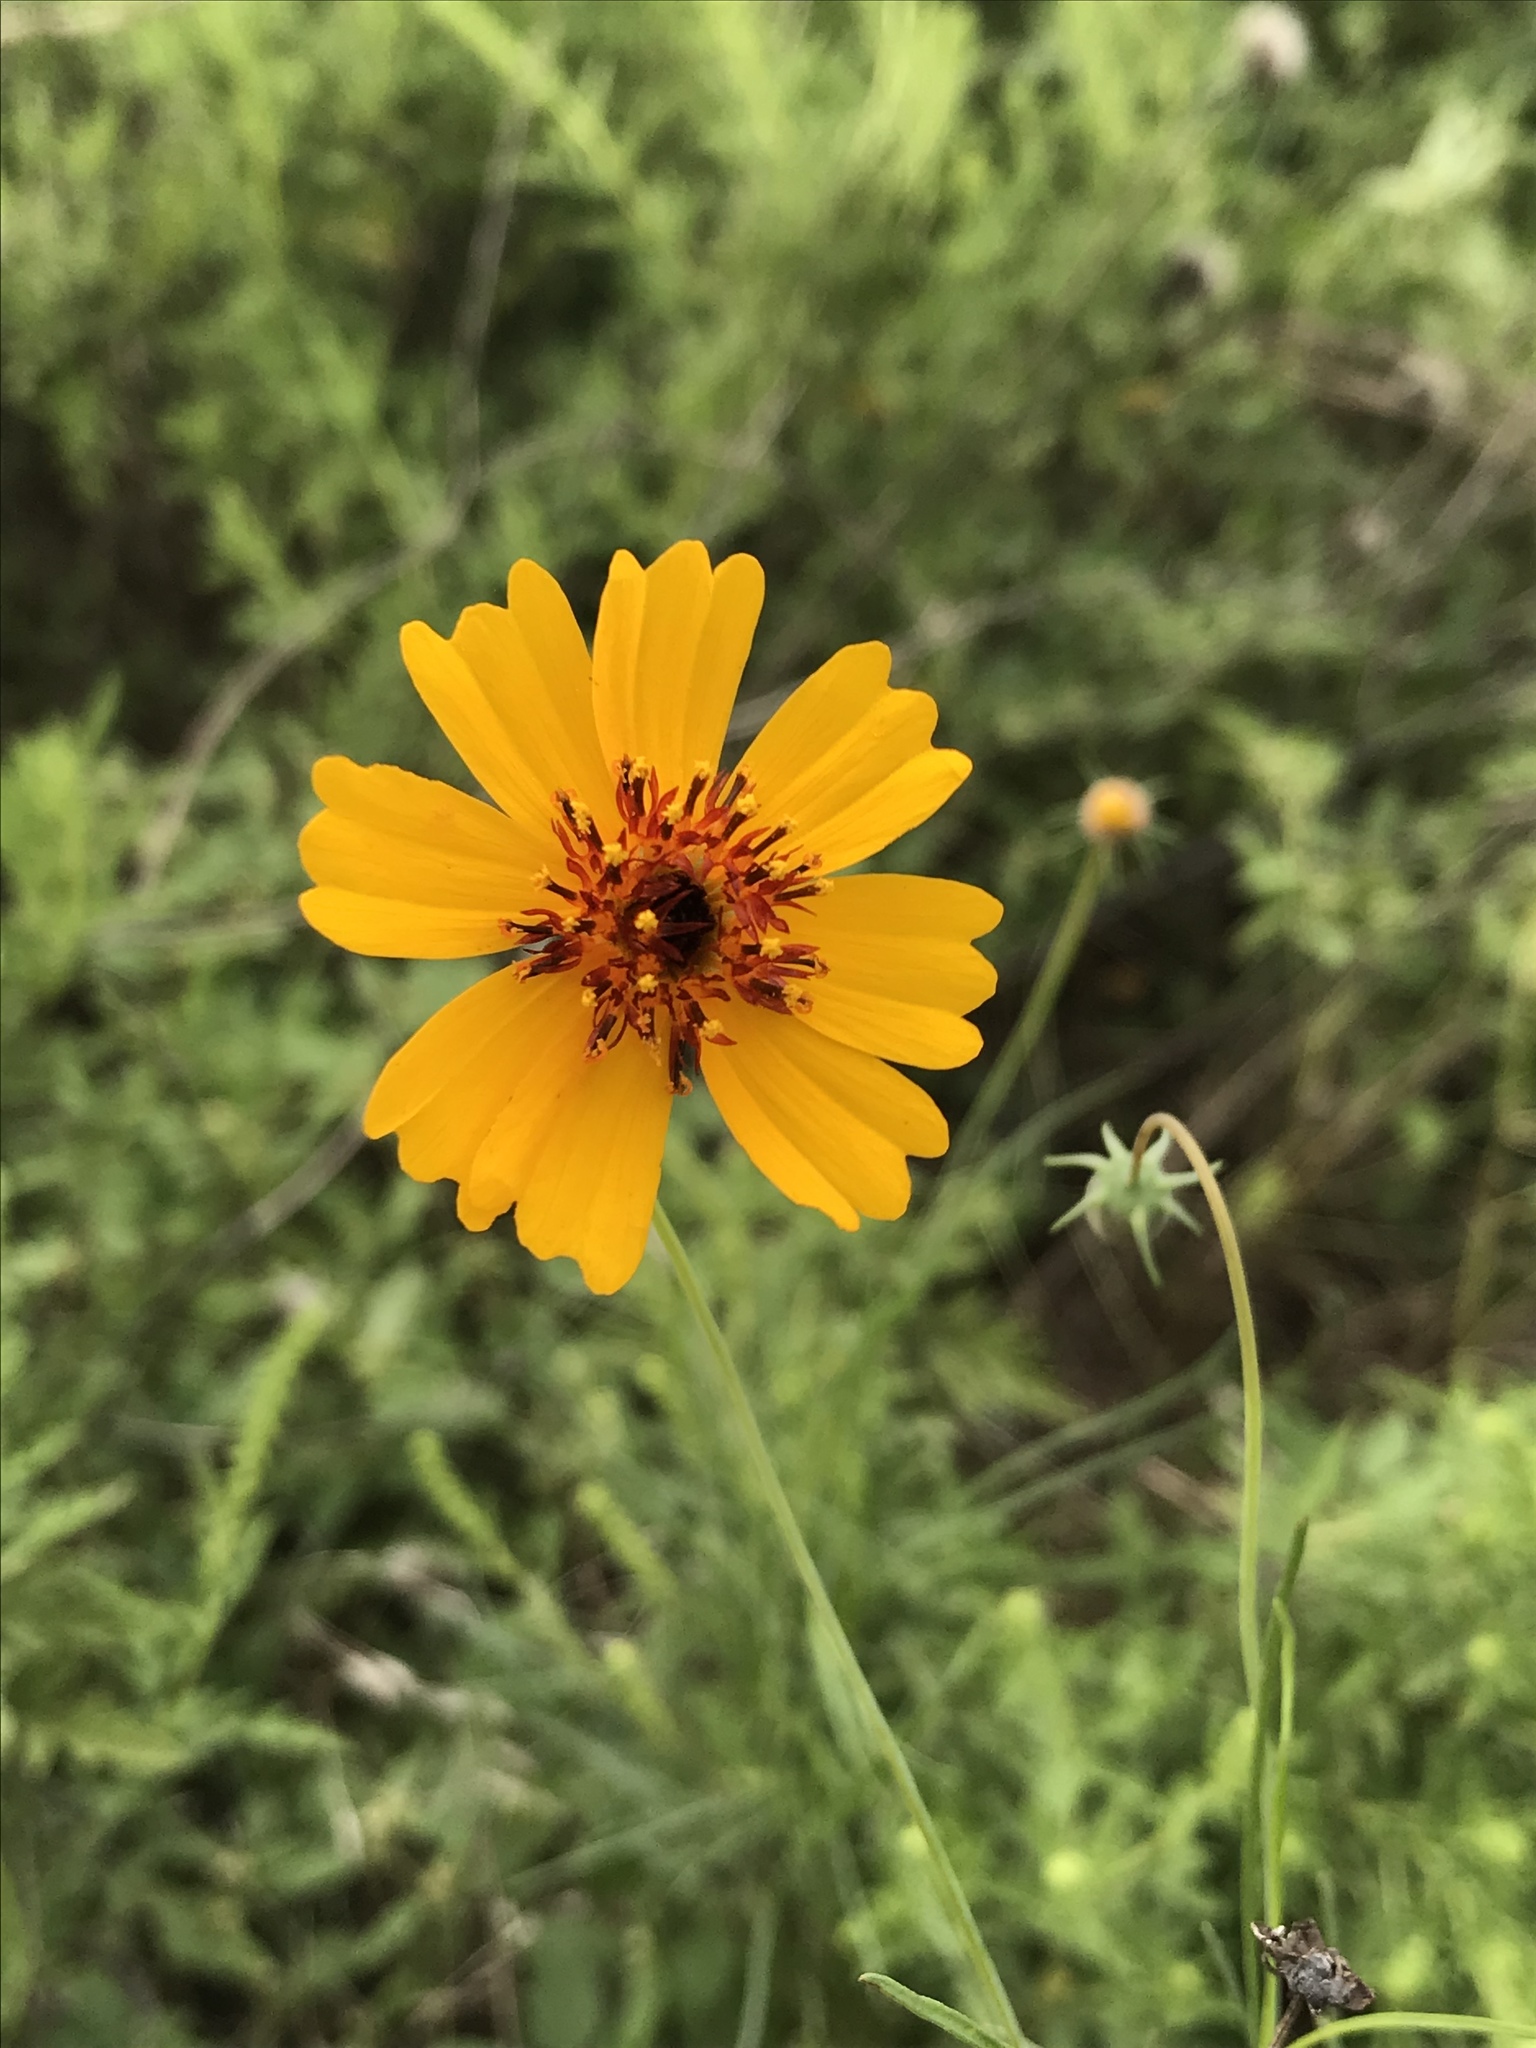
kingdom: Plantae
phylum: Tracheophyta
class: Magnoliopsida
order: Asterales
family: Asteraceae
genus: Thelesperma
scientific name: Thelesperma filifolium
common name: Stiff greenthread
